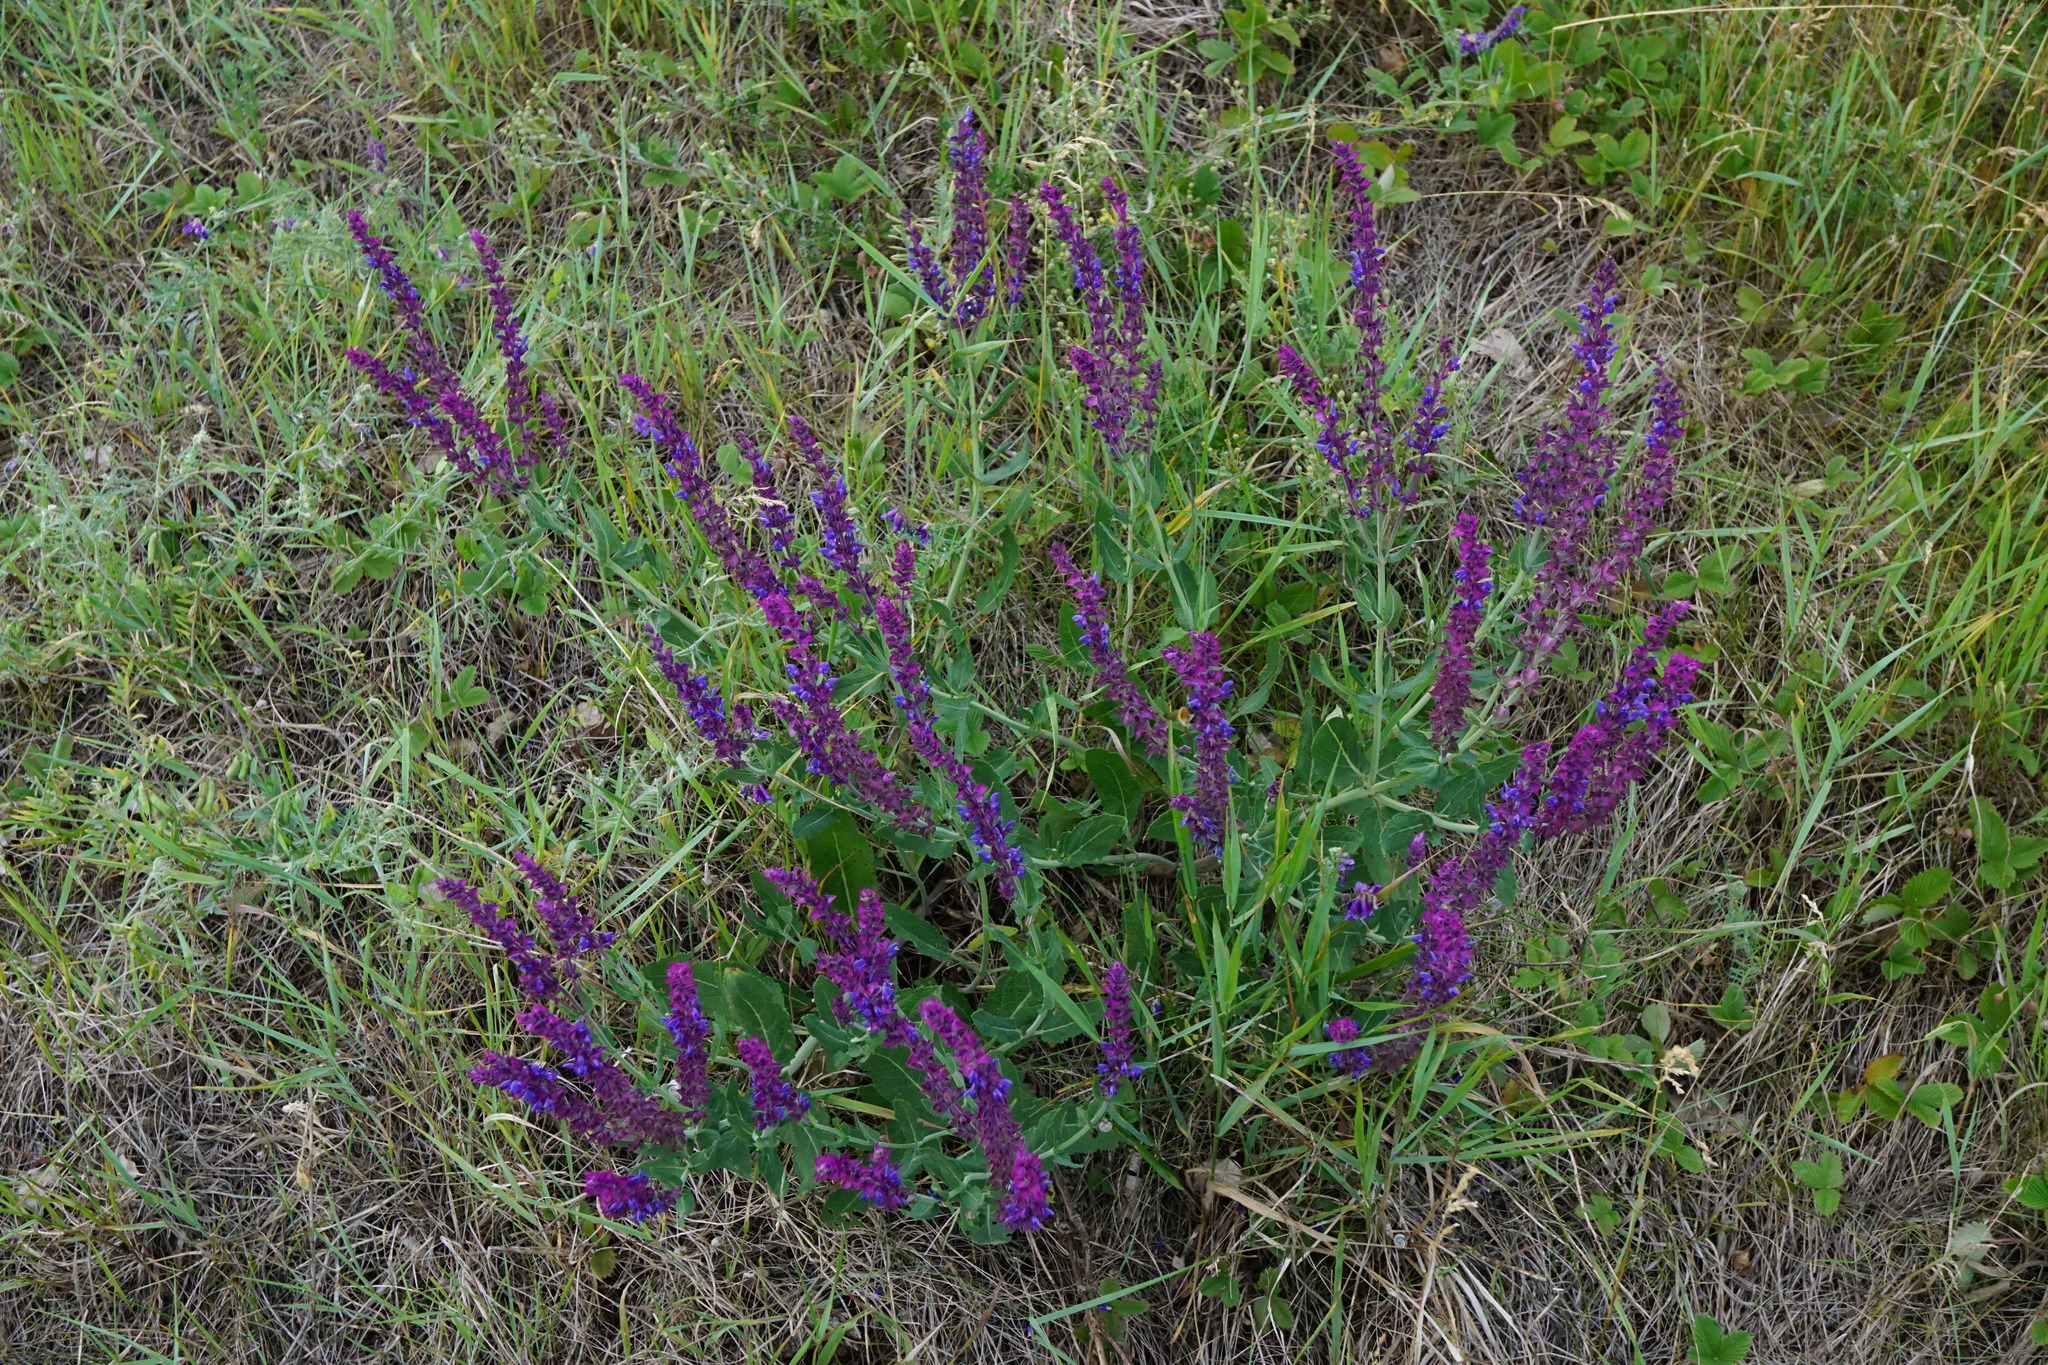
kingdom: Plantae
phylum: Tracheophyta
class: Magnoliopsida
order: Lamiales
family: Lamiaceae
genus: Salvia
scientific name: Salvia nemorosa
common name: Balkan clary
